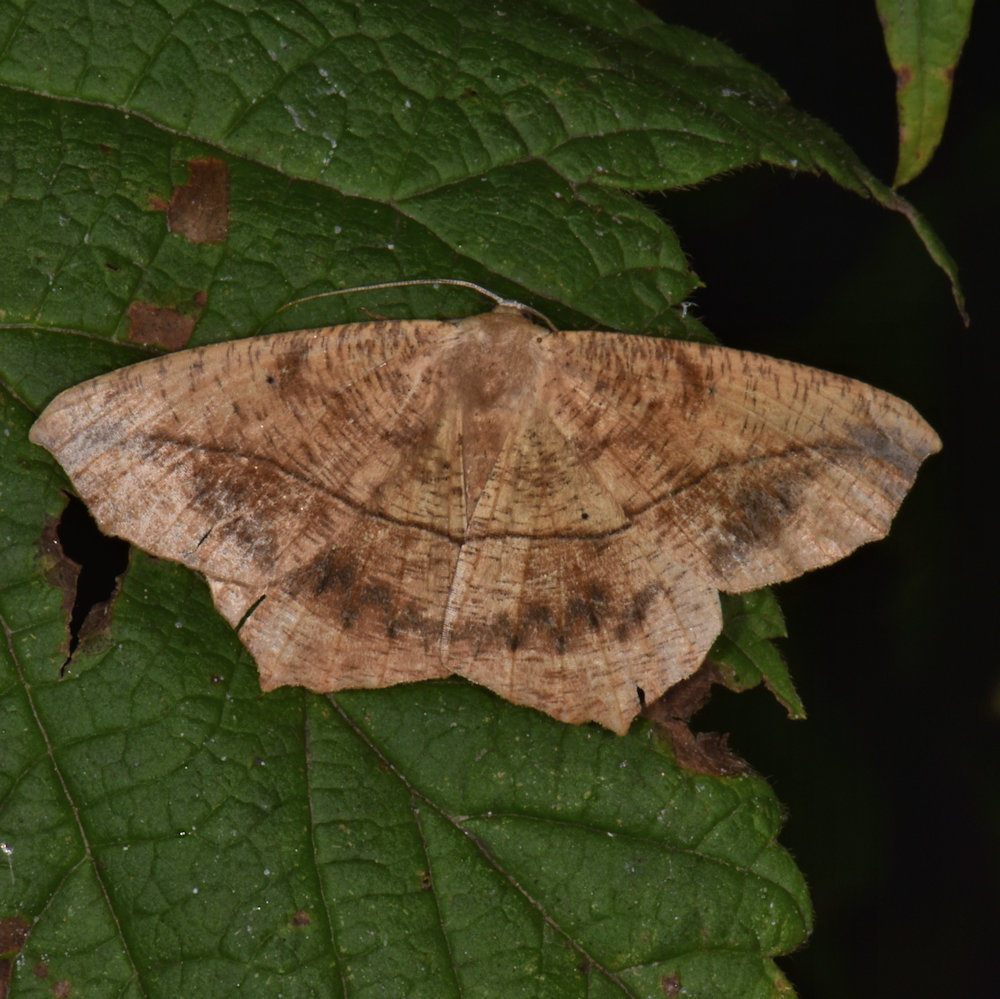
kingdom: Animalia
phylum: Arthropoda
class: Insecta
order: Lepidoptera
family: Geometridae
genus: Prochoerodes
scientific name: Prochoerodes lineola
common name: Large maple spanworm
